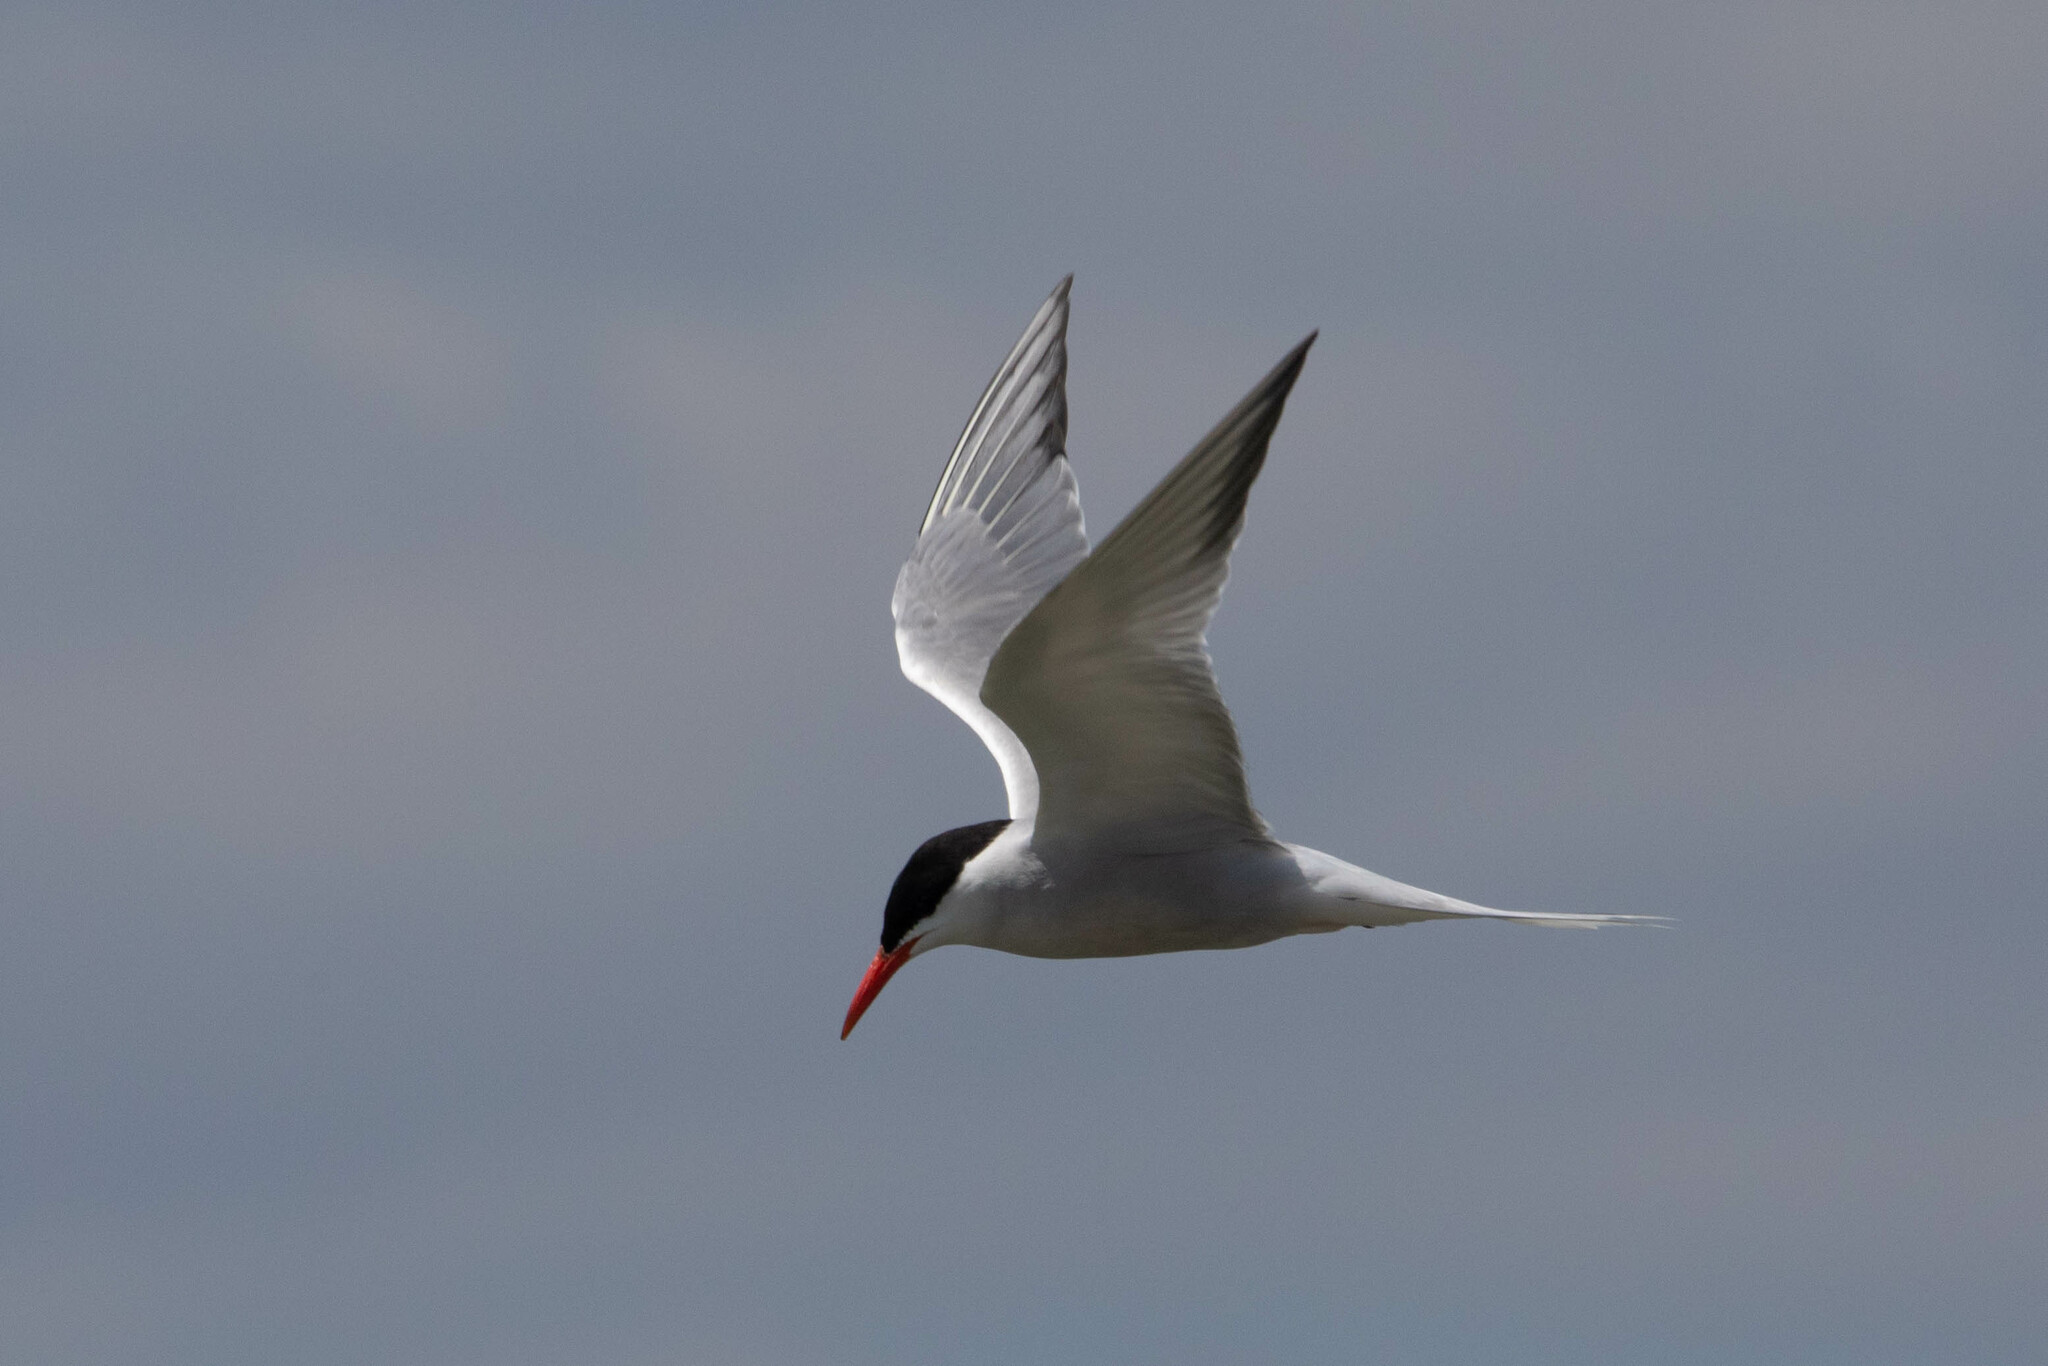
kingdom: Animalia
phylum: Chordata
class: Aves
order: Charadriiformes
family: Laridae
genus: Sterna
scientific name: Sterna hirundo
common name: Common tern
